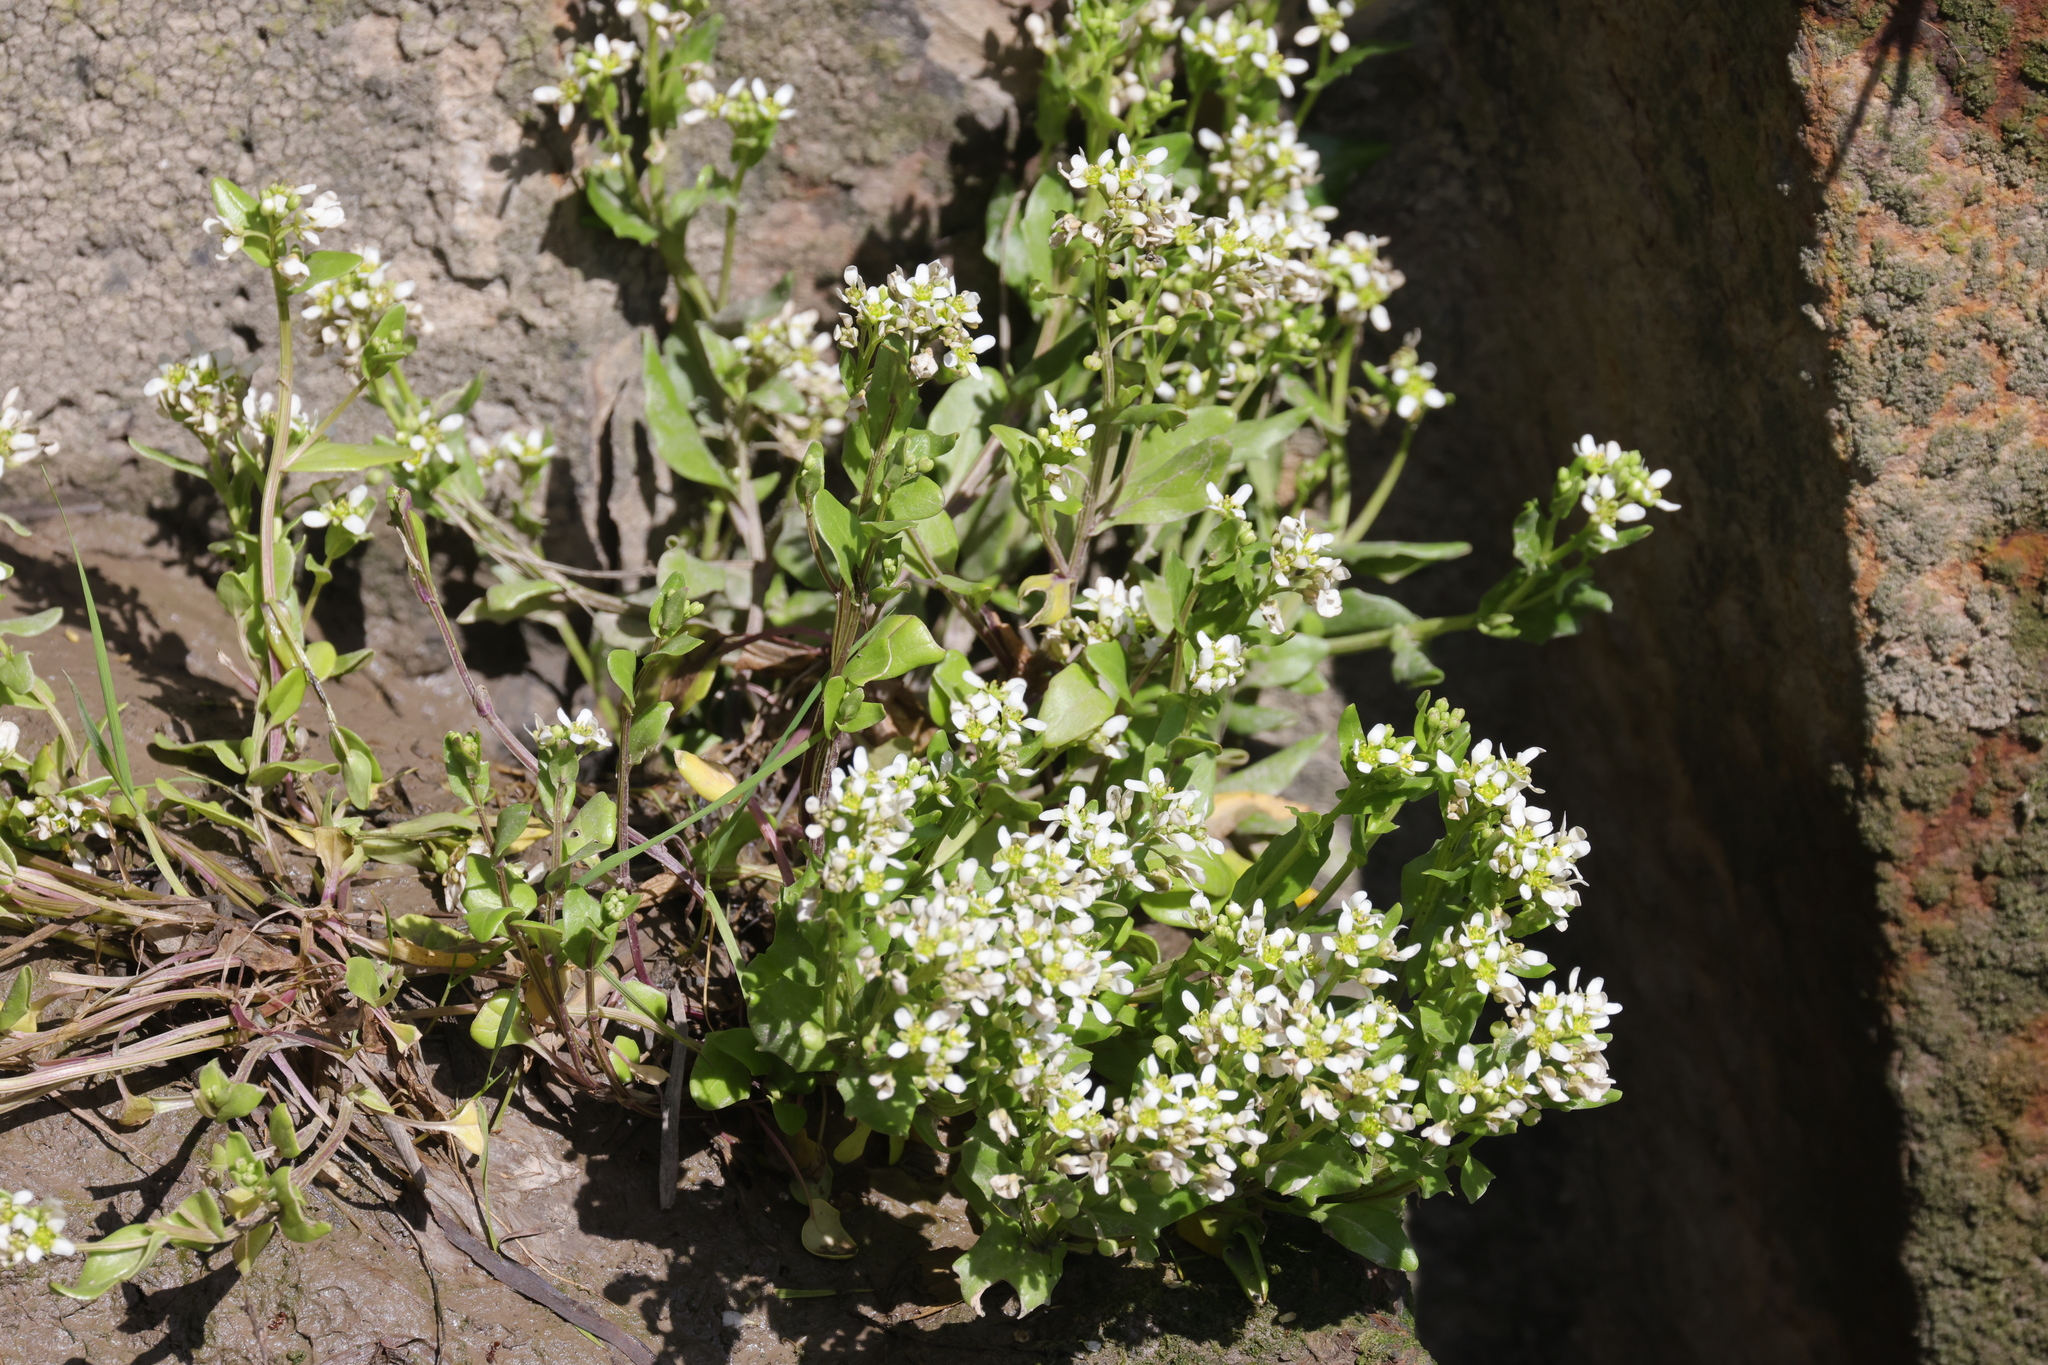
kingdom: Plantae
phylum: Tracheophyta
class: Magnoliopsida
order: Brassicales
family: Brassicaceae
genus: Cochlearia
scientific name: Cochlearia officinalis
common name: Scurvy-grass
